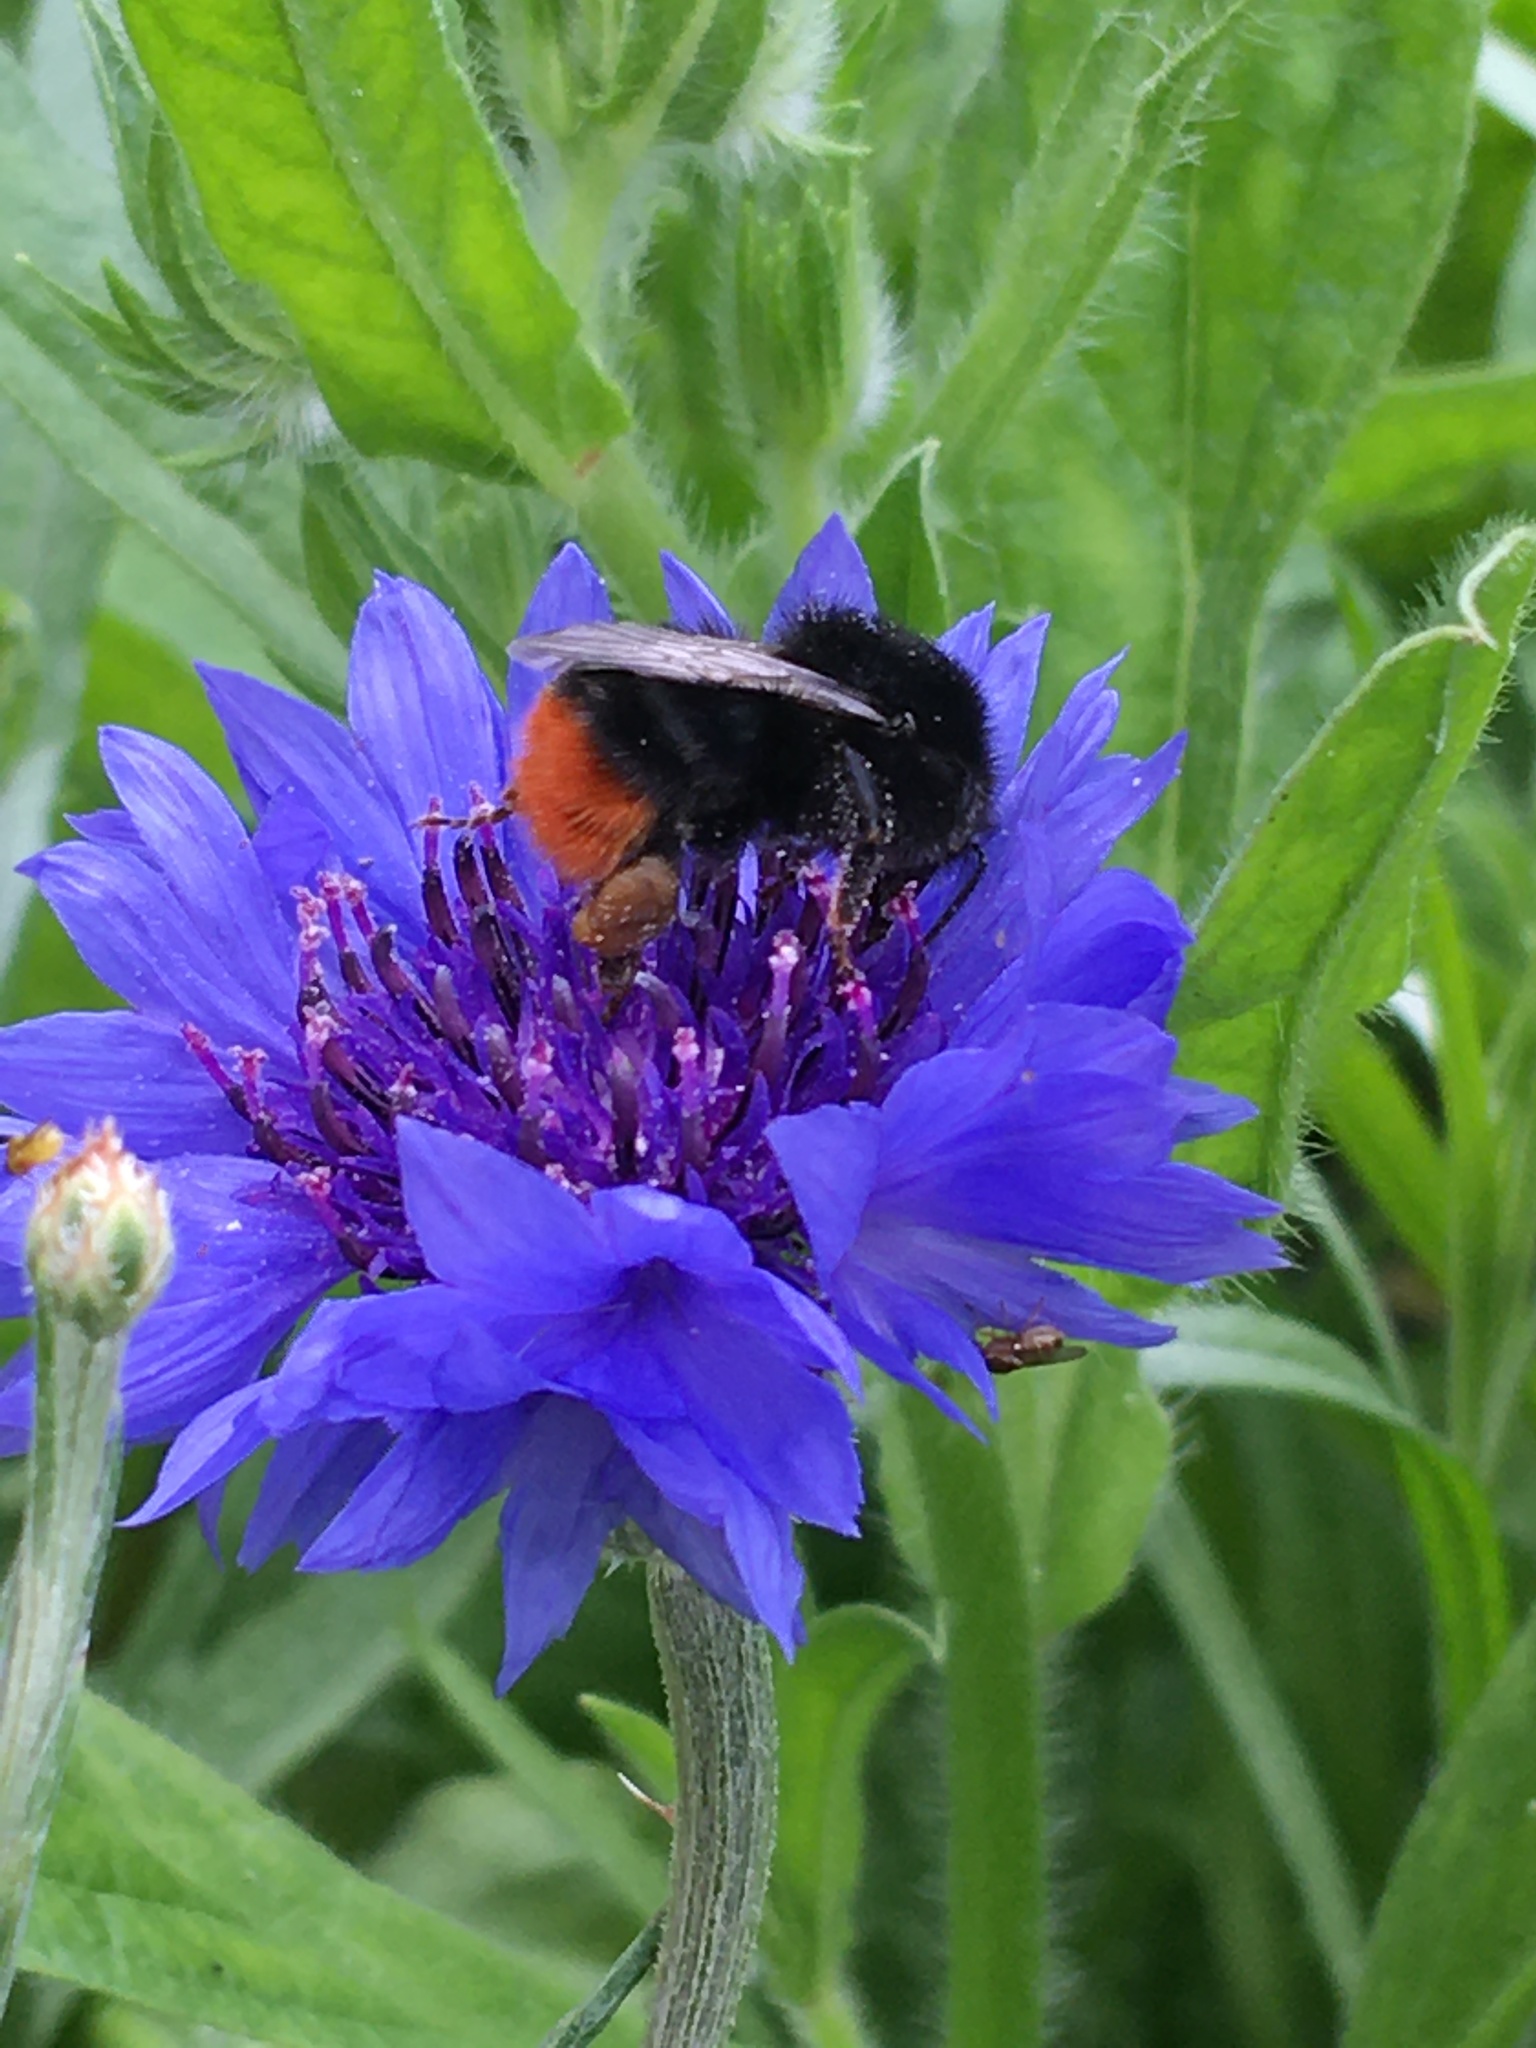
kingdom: Animalia
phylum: Arthropoda
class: Insecta
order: Hymenoptera
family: Apidae
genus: Bombus
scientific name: Bombus lapidarius
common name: Large red-tailed humble-bee
